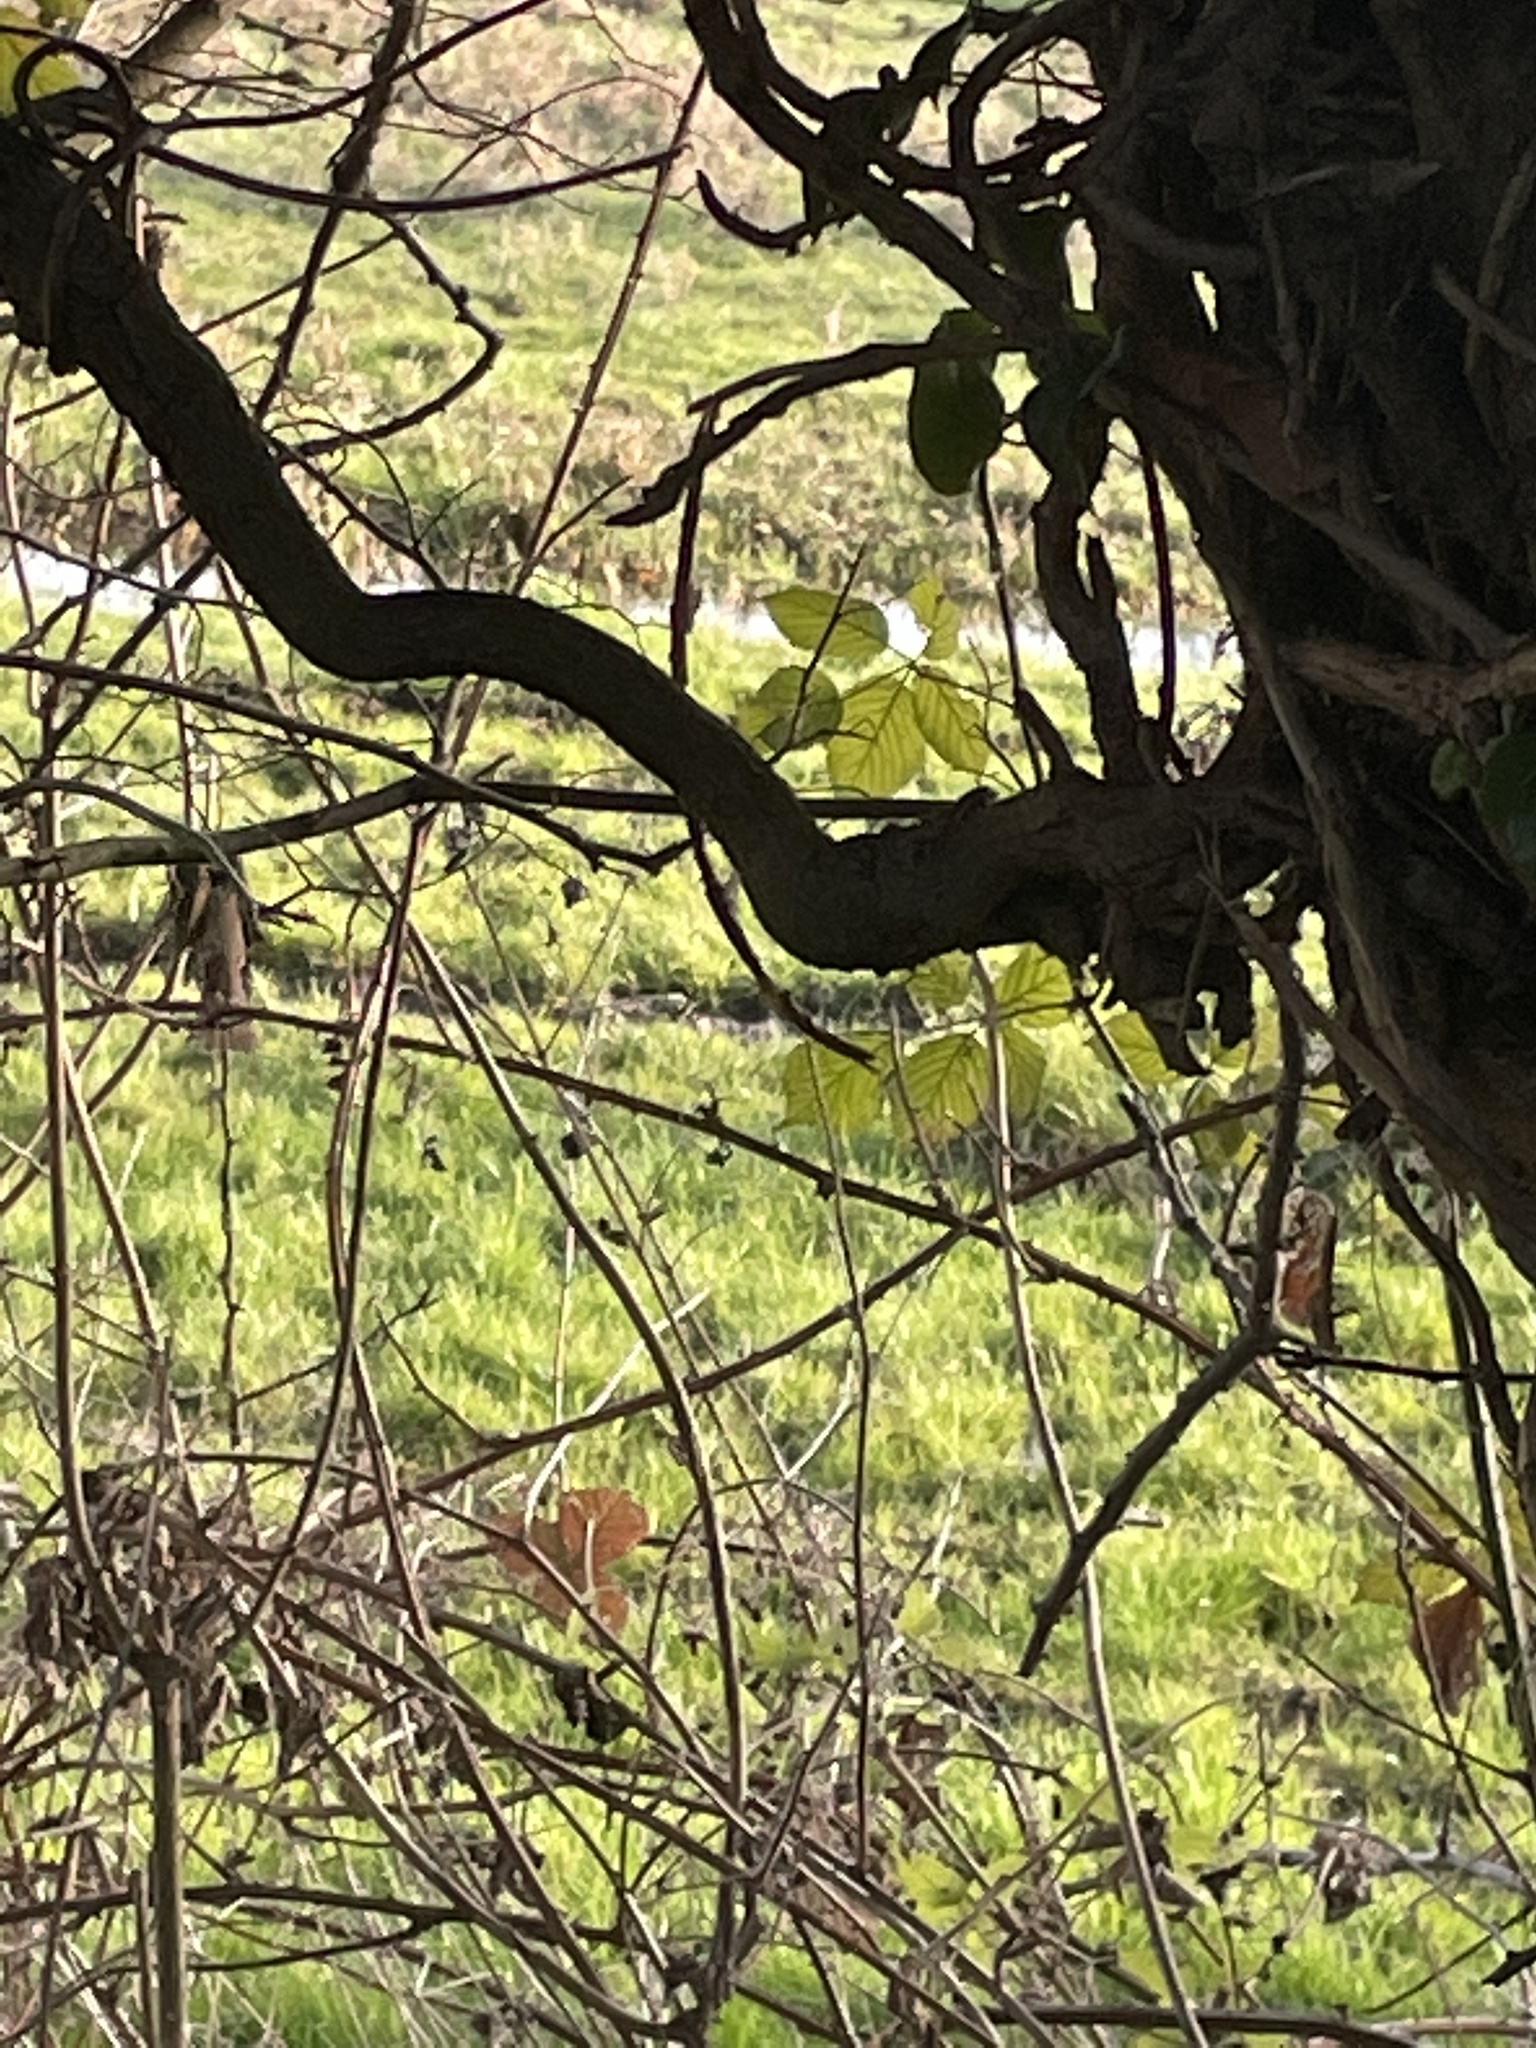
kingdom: Animalia
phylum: Chordata
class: Aves
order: Passeriformes
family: Prunellidae
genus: Prunella
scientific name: Prunella modularis
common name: Dunnock
